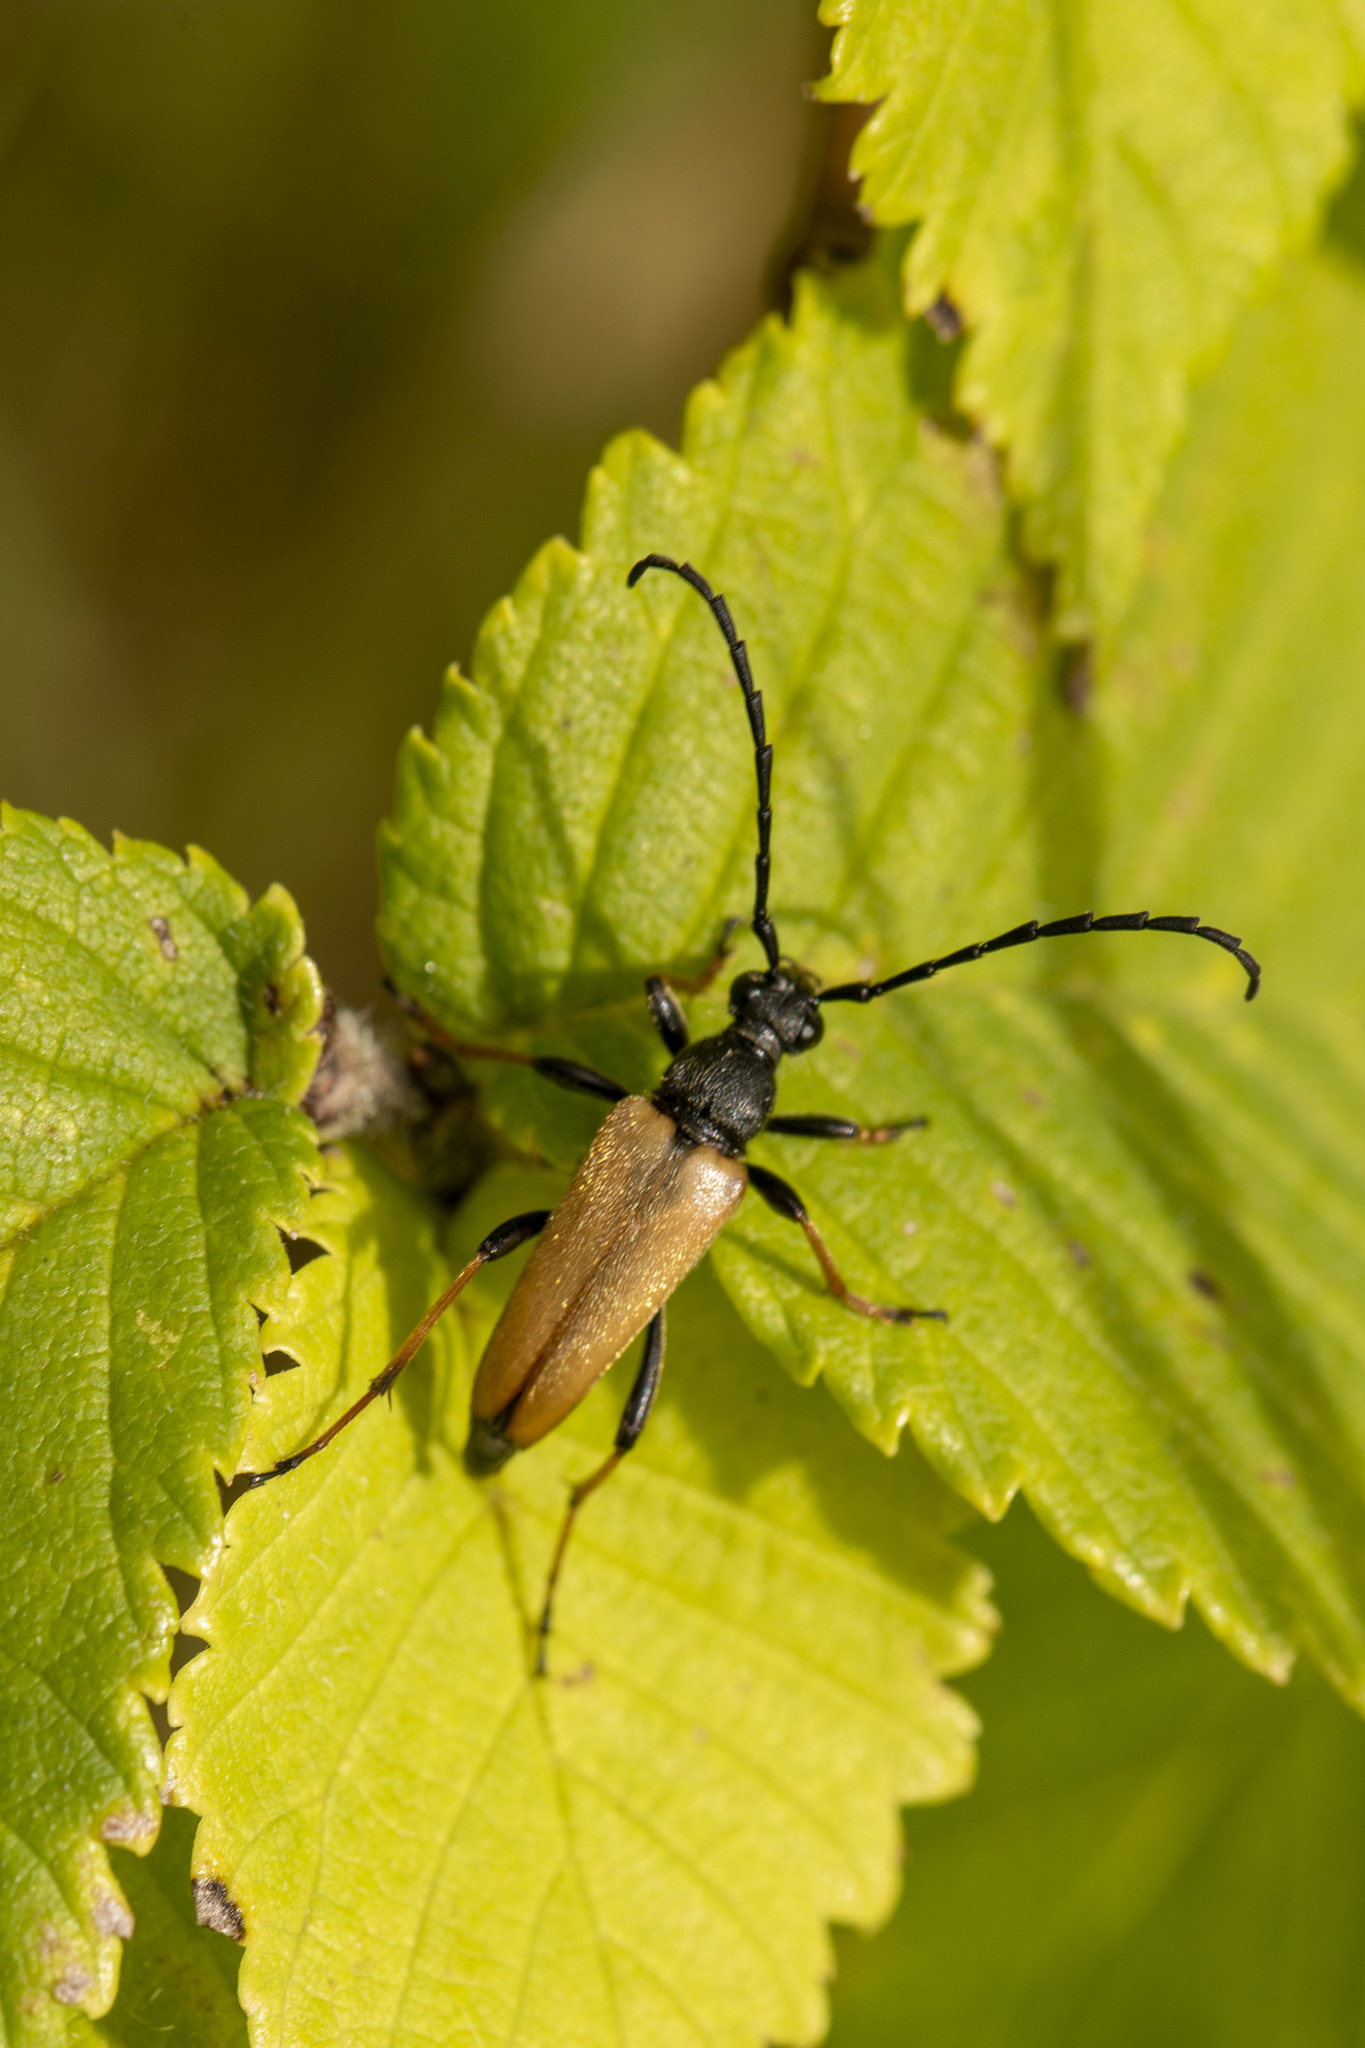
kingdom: Animalia
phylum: Arthropoda
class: Insecta
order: Coleoptera
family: Cerambycidae
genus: Stictoleptura
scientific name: Stictoleptura rubra
